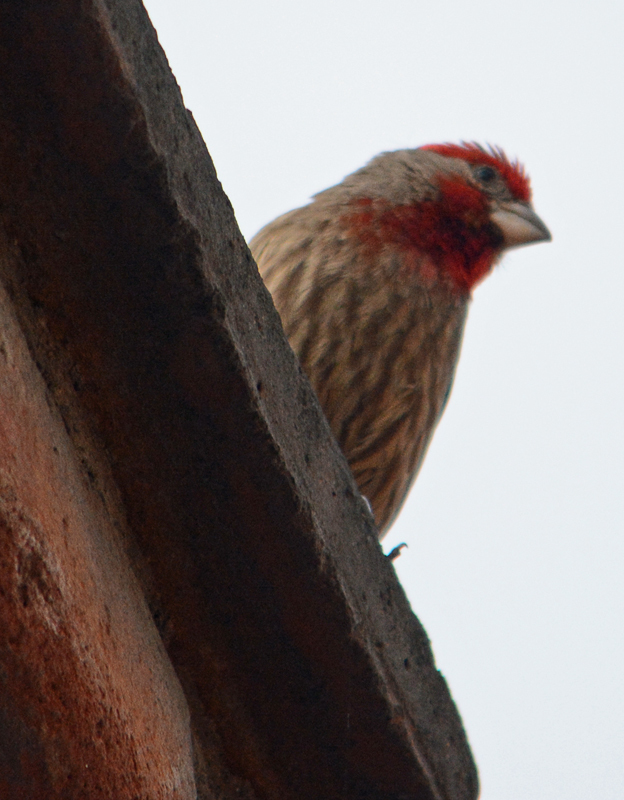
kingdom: Animalia
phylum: Chordata
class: Aves
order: Passeriformes
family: Fringillidae
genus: Haemorhous
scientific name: Haemorhous mexicanus
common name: House finch
